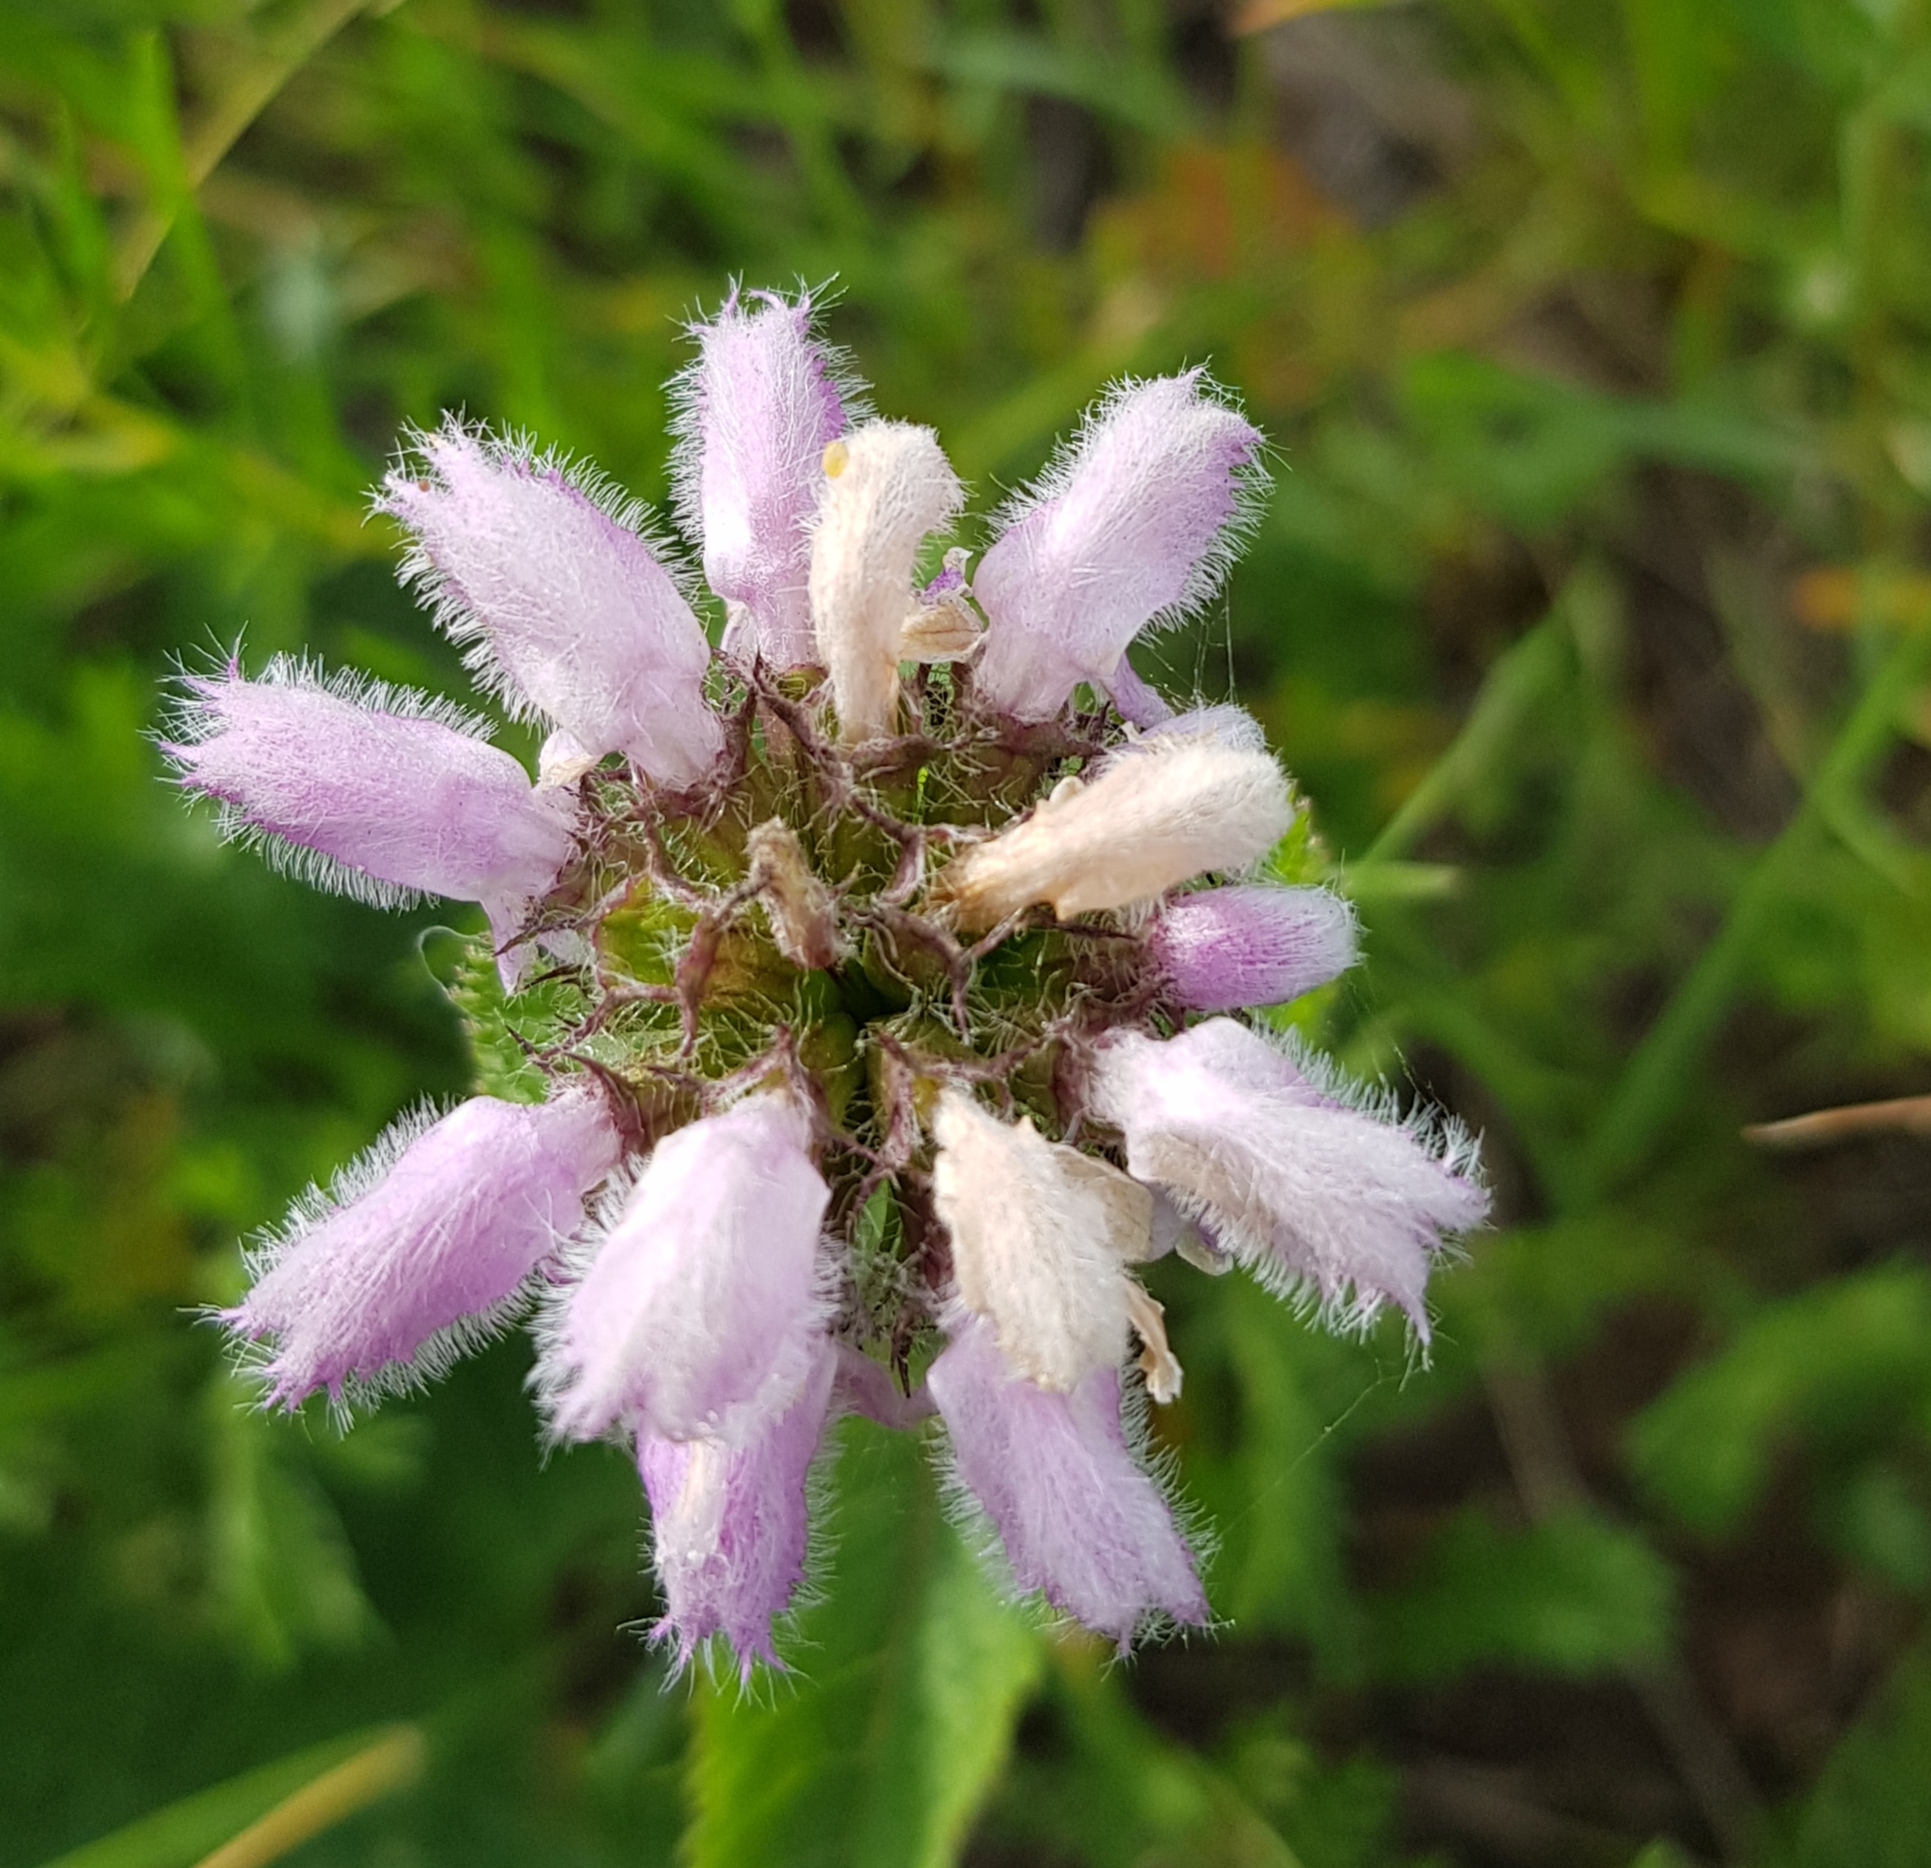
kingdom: Plantae
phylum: Tracheophyta
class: Magnoliopsida
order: Lamiales
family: Lamiaceae
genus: Phlomoides
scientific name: Phlomoides tuberosa
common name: Tuberous jerusalem sage
